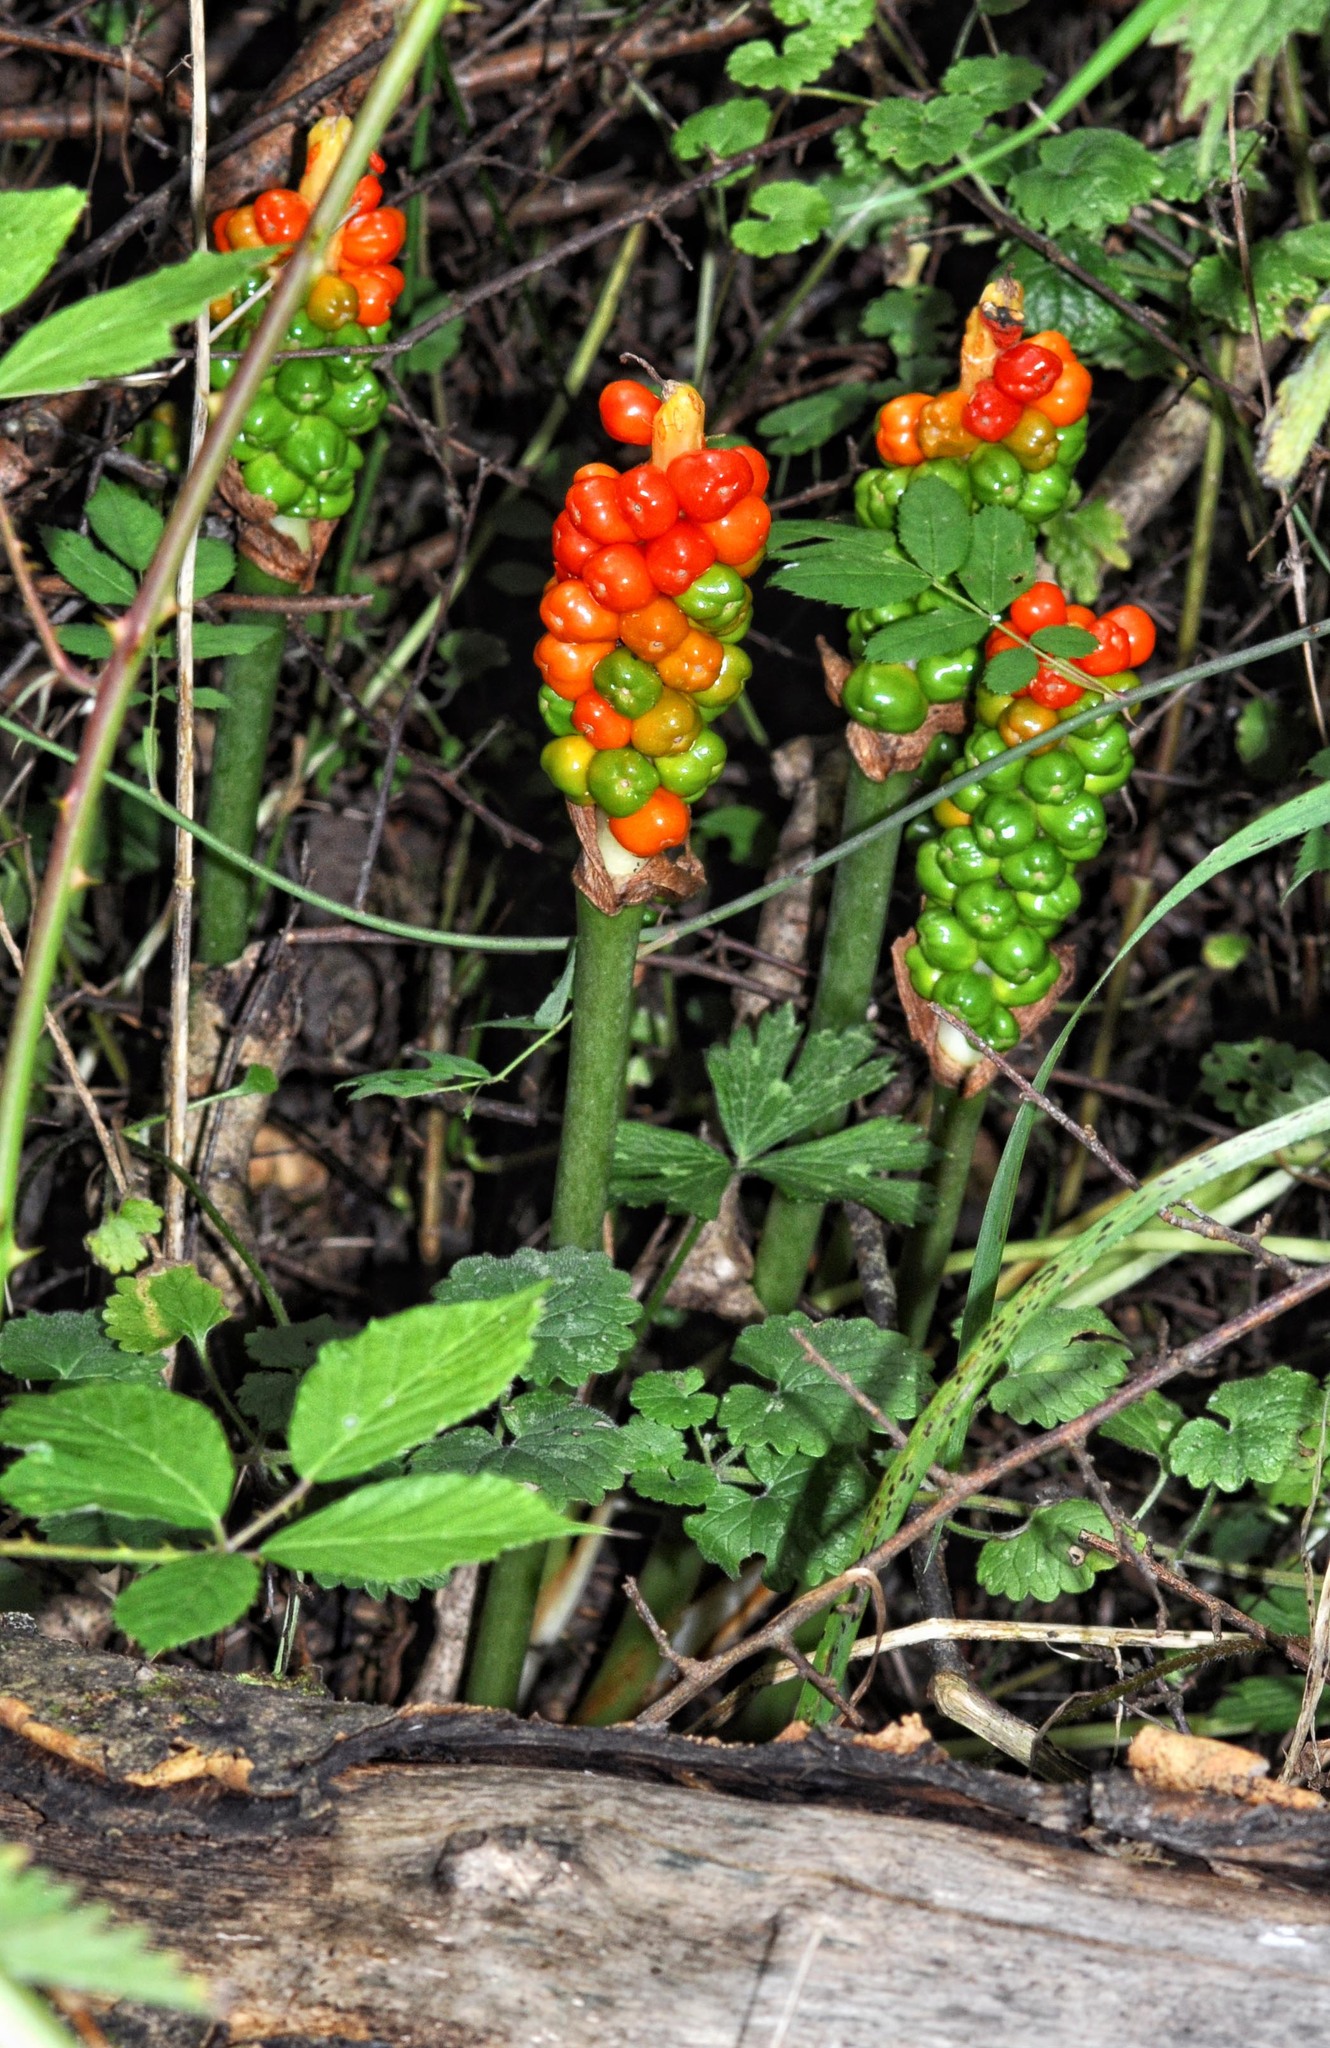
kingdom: Plantae
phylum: Tracheophyta
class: Liliopsida
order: Alismatales
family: Araceae
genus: Arum
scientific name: Arum maculatum
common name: Lords-and-ladies
